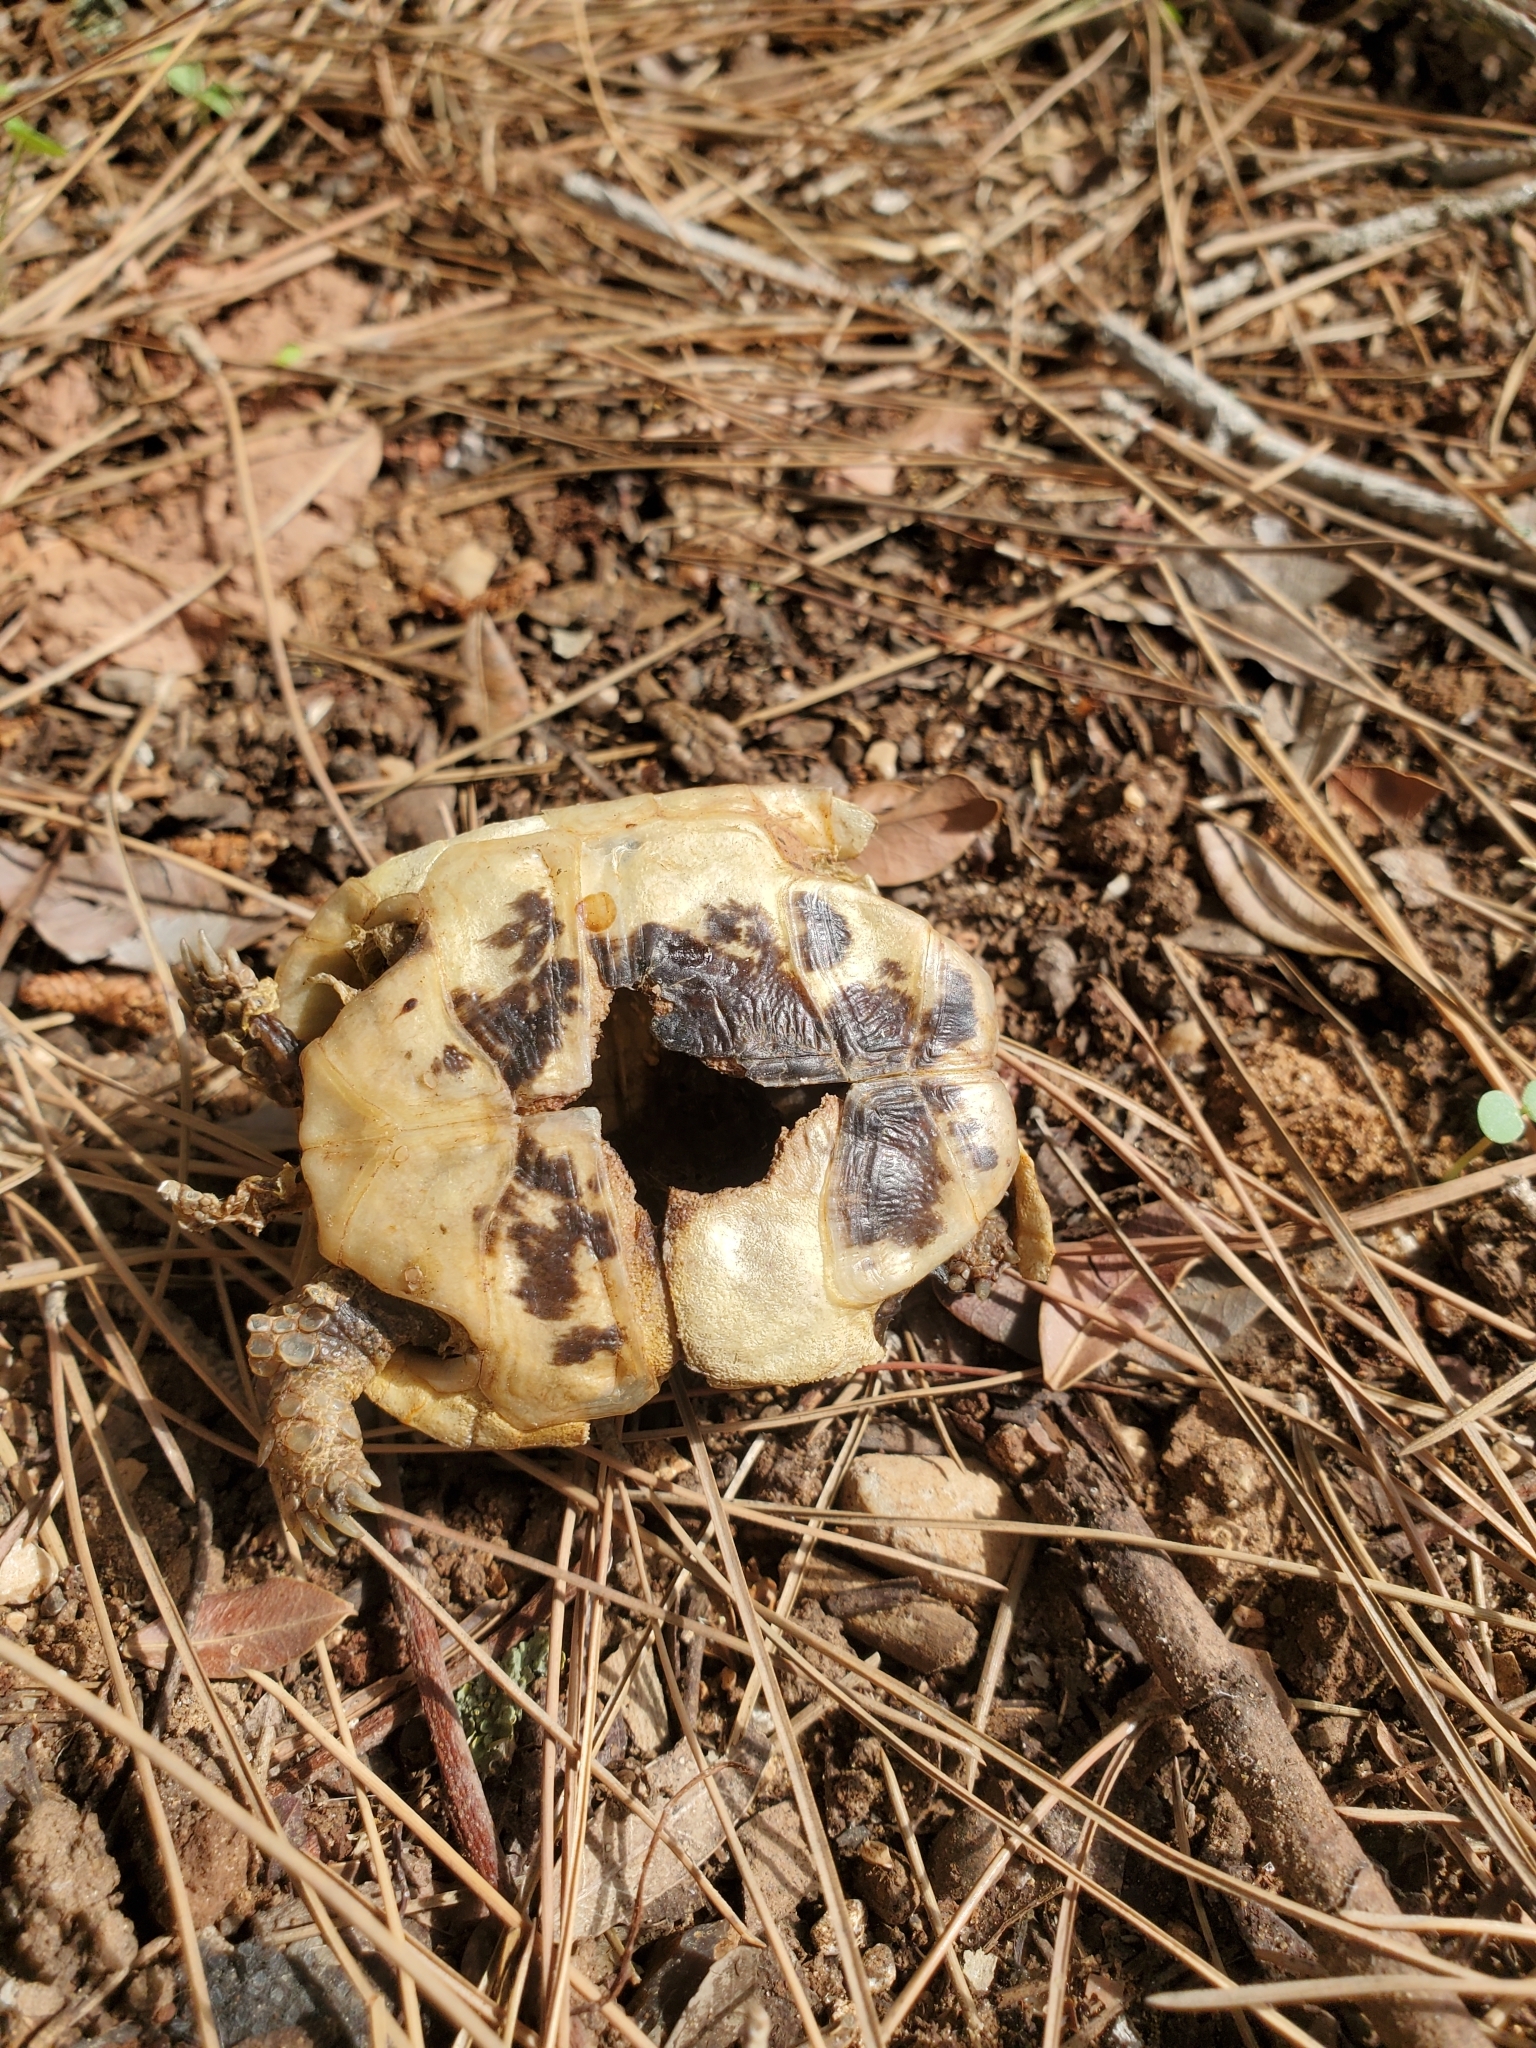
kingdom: Animalia
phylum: Chordata
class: Testudines
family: Testudinidae
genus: Testudo
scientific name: Testudo graeca
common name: Common tortoise
